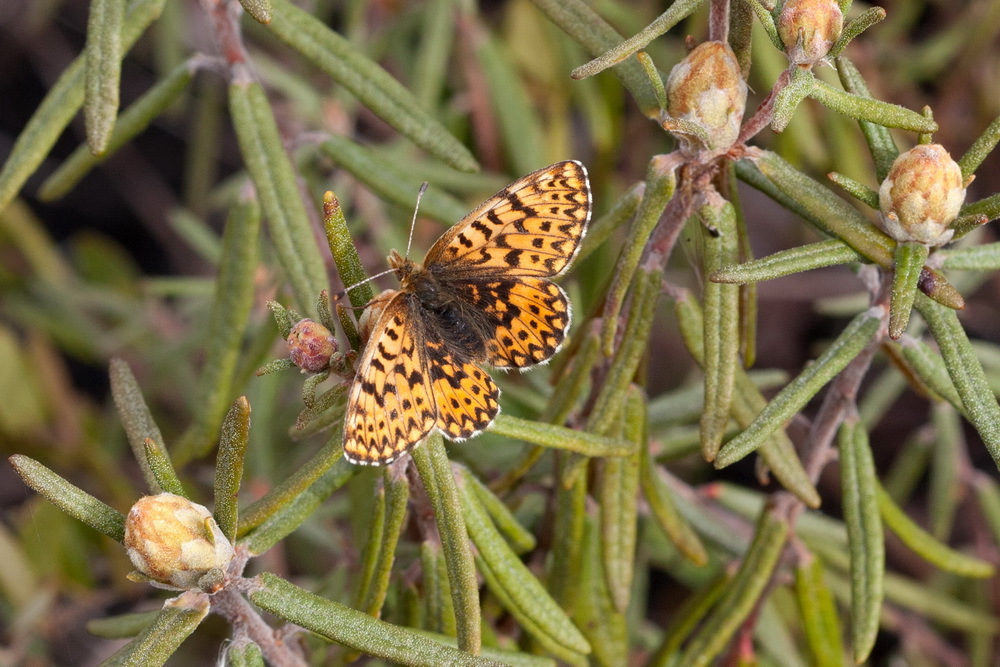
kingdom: Animalia
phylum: Arthropoda
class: Insecta
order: Lepidoptera
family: Nymphalidae
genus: Boloria
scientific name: Boloria freija
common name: Freija fritillary
